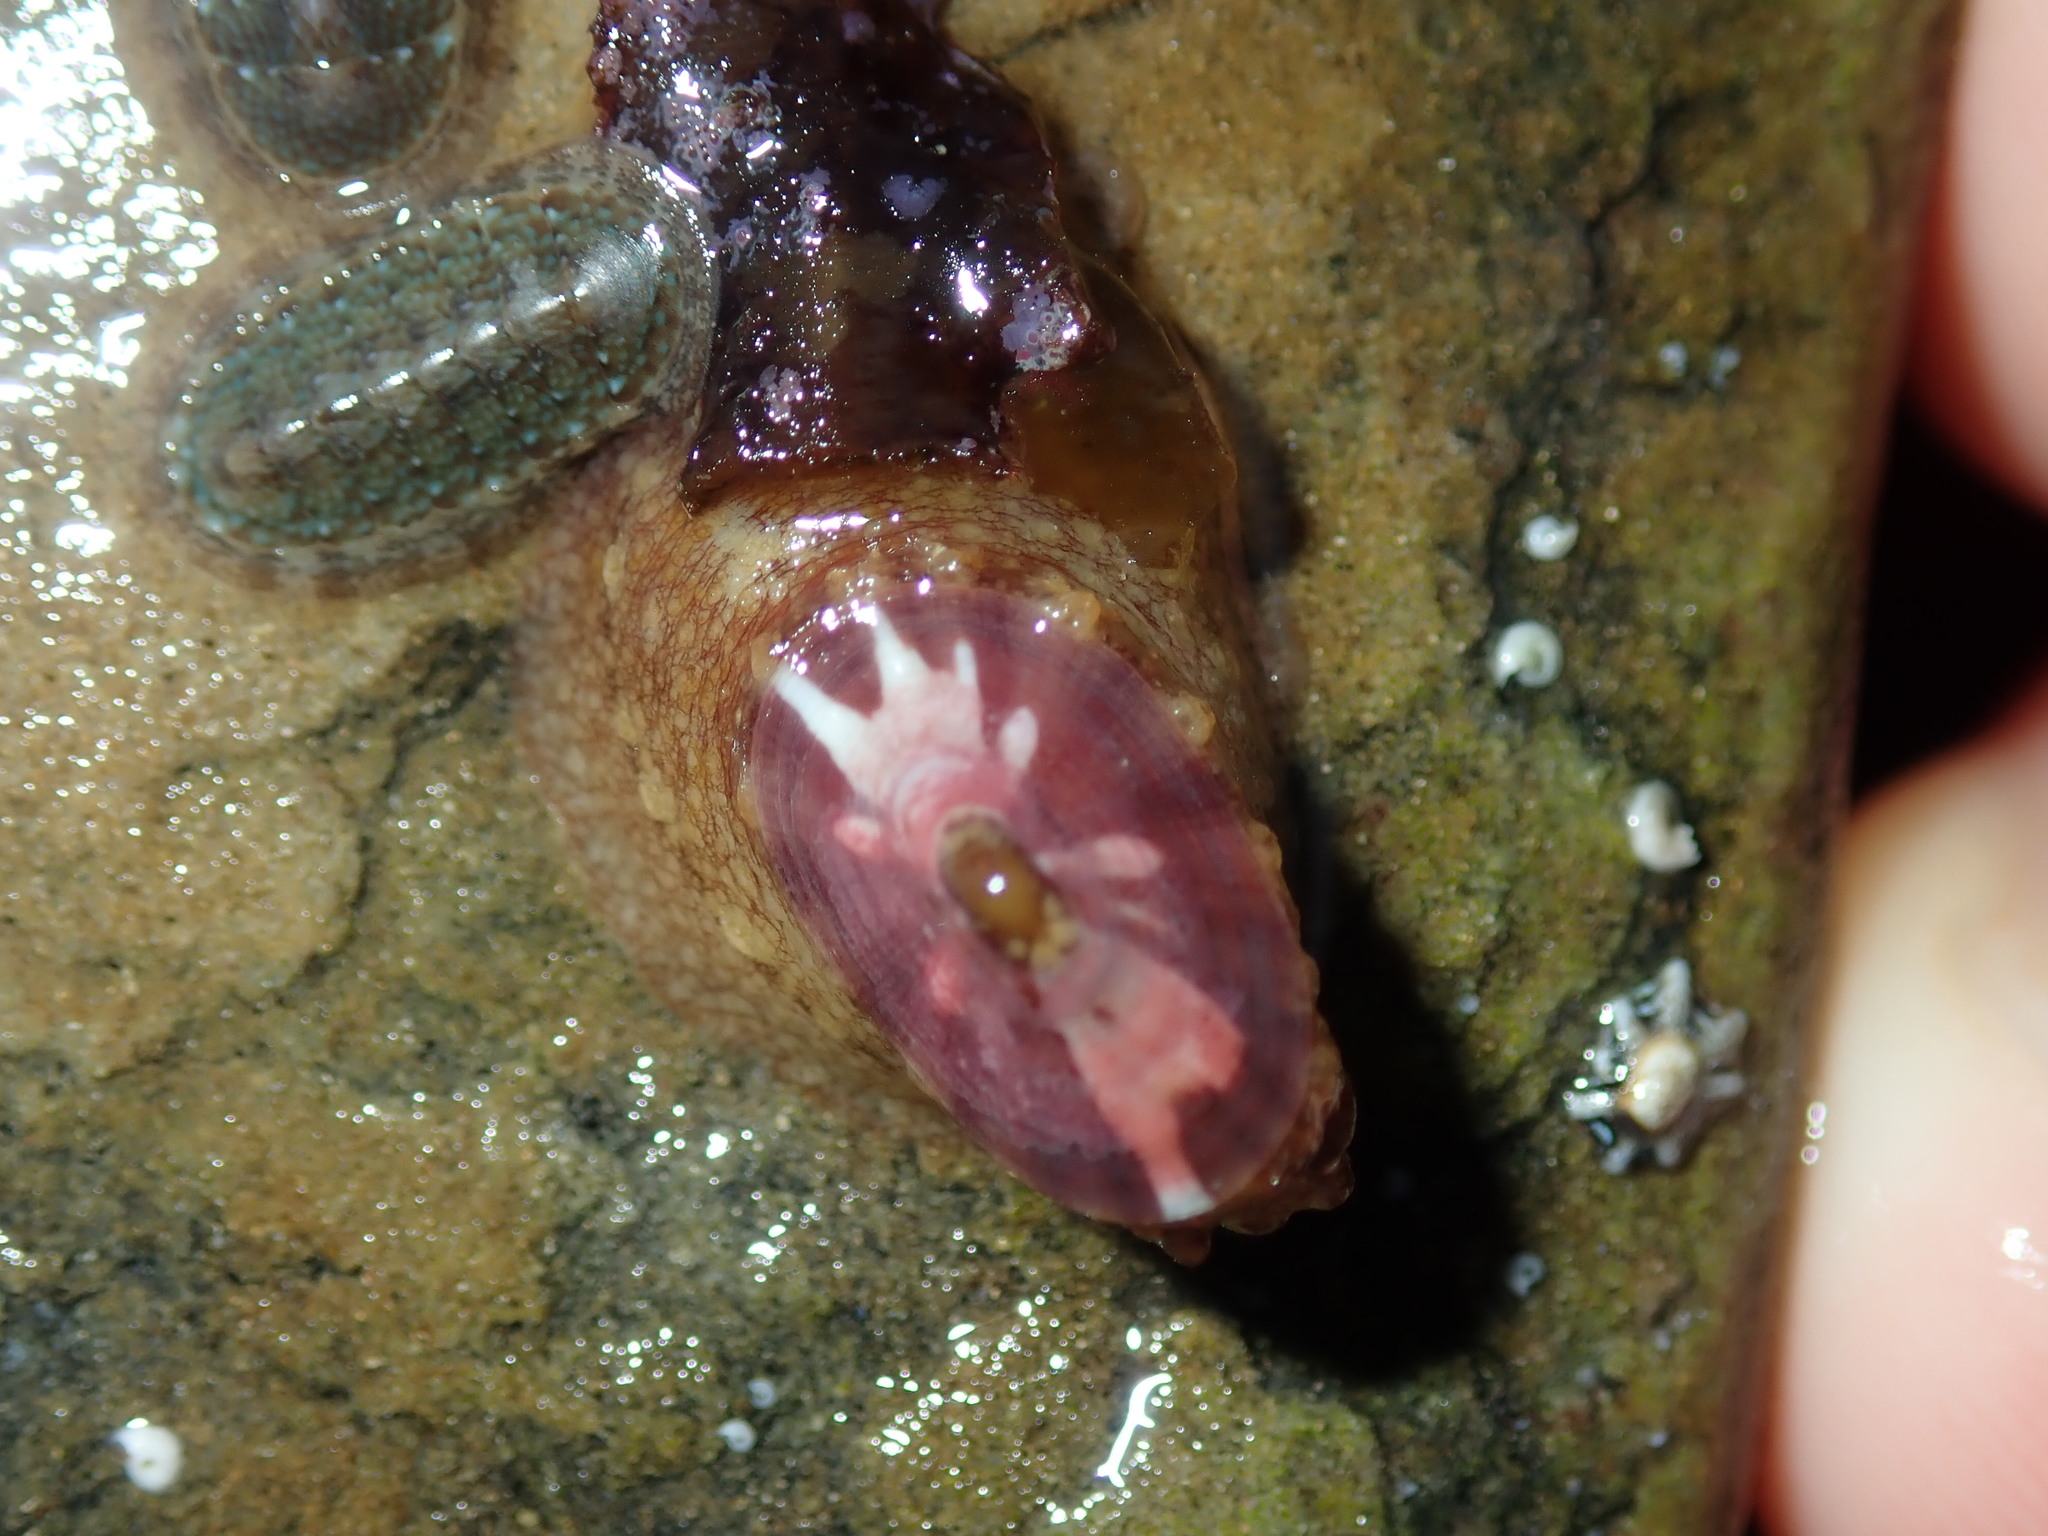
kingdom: Animalia
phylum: Mollusca
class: Gastropoda
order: Lepetellida
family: Fissurellidae
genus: Amblychilepas
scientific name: Amblychilepas nigrita
